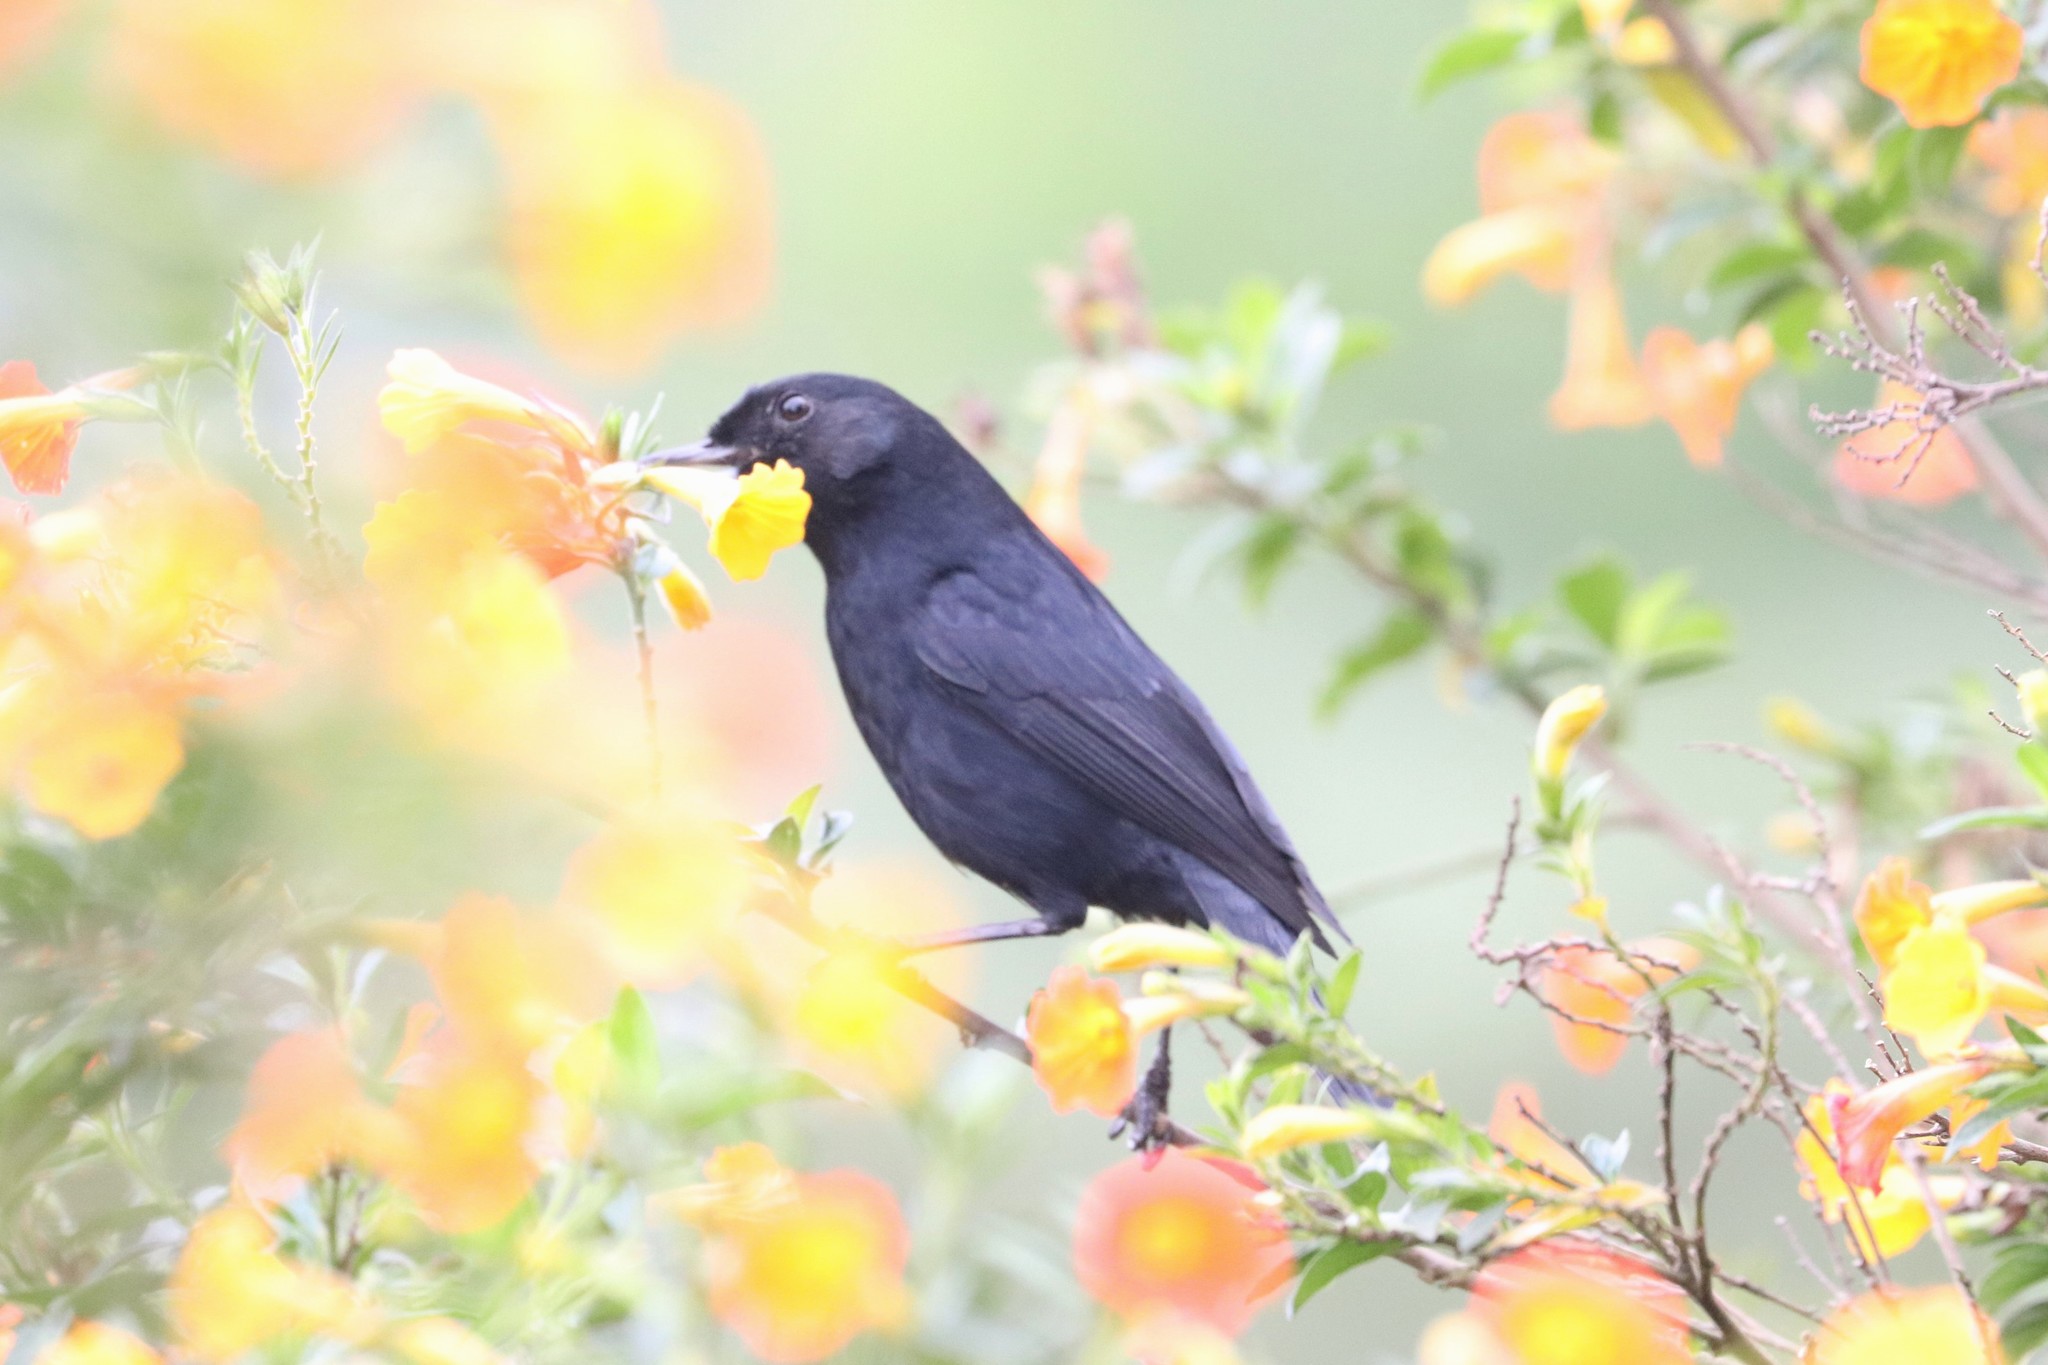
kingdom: Animalia
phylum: Chordata
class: Aves
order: Passeriformes
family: Thraupidae
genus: Diglossa
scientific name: Diglossa humeralis
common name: Black flowerpiercer
